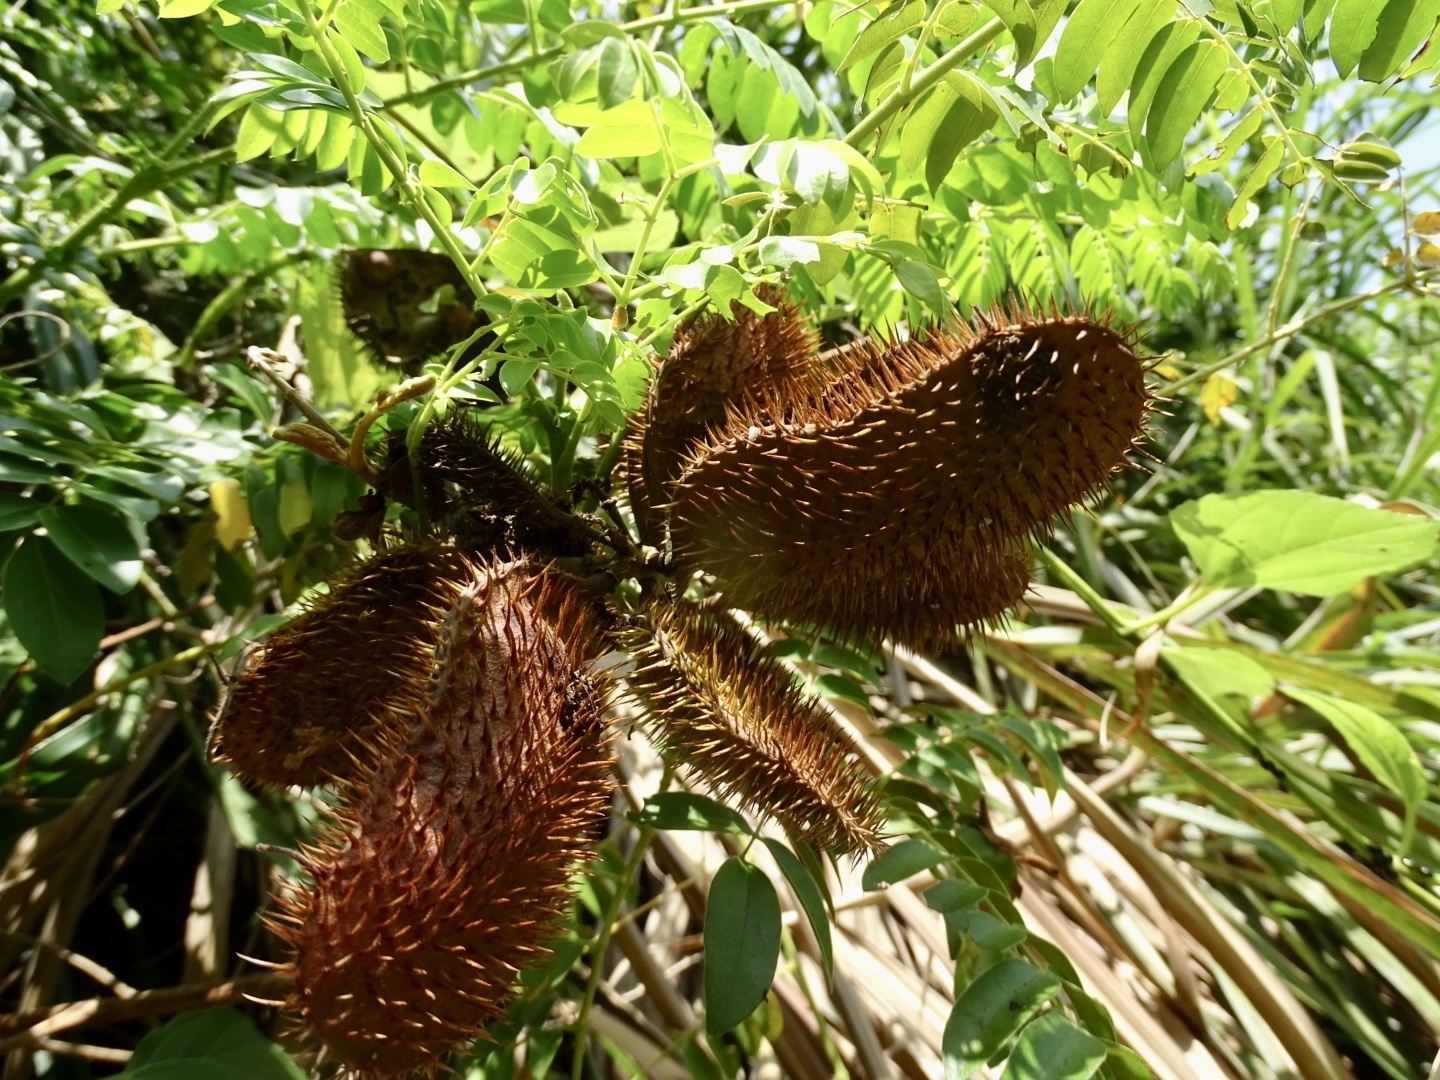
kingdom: Plantae
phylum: Tracheophyta
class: Magnoliopsida
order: Fabales
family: Fabaceae
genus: Guilandina
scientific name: Guilandina bonduc
